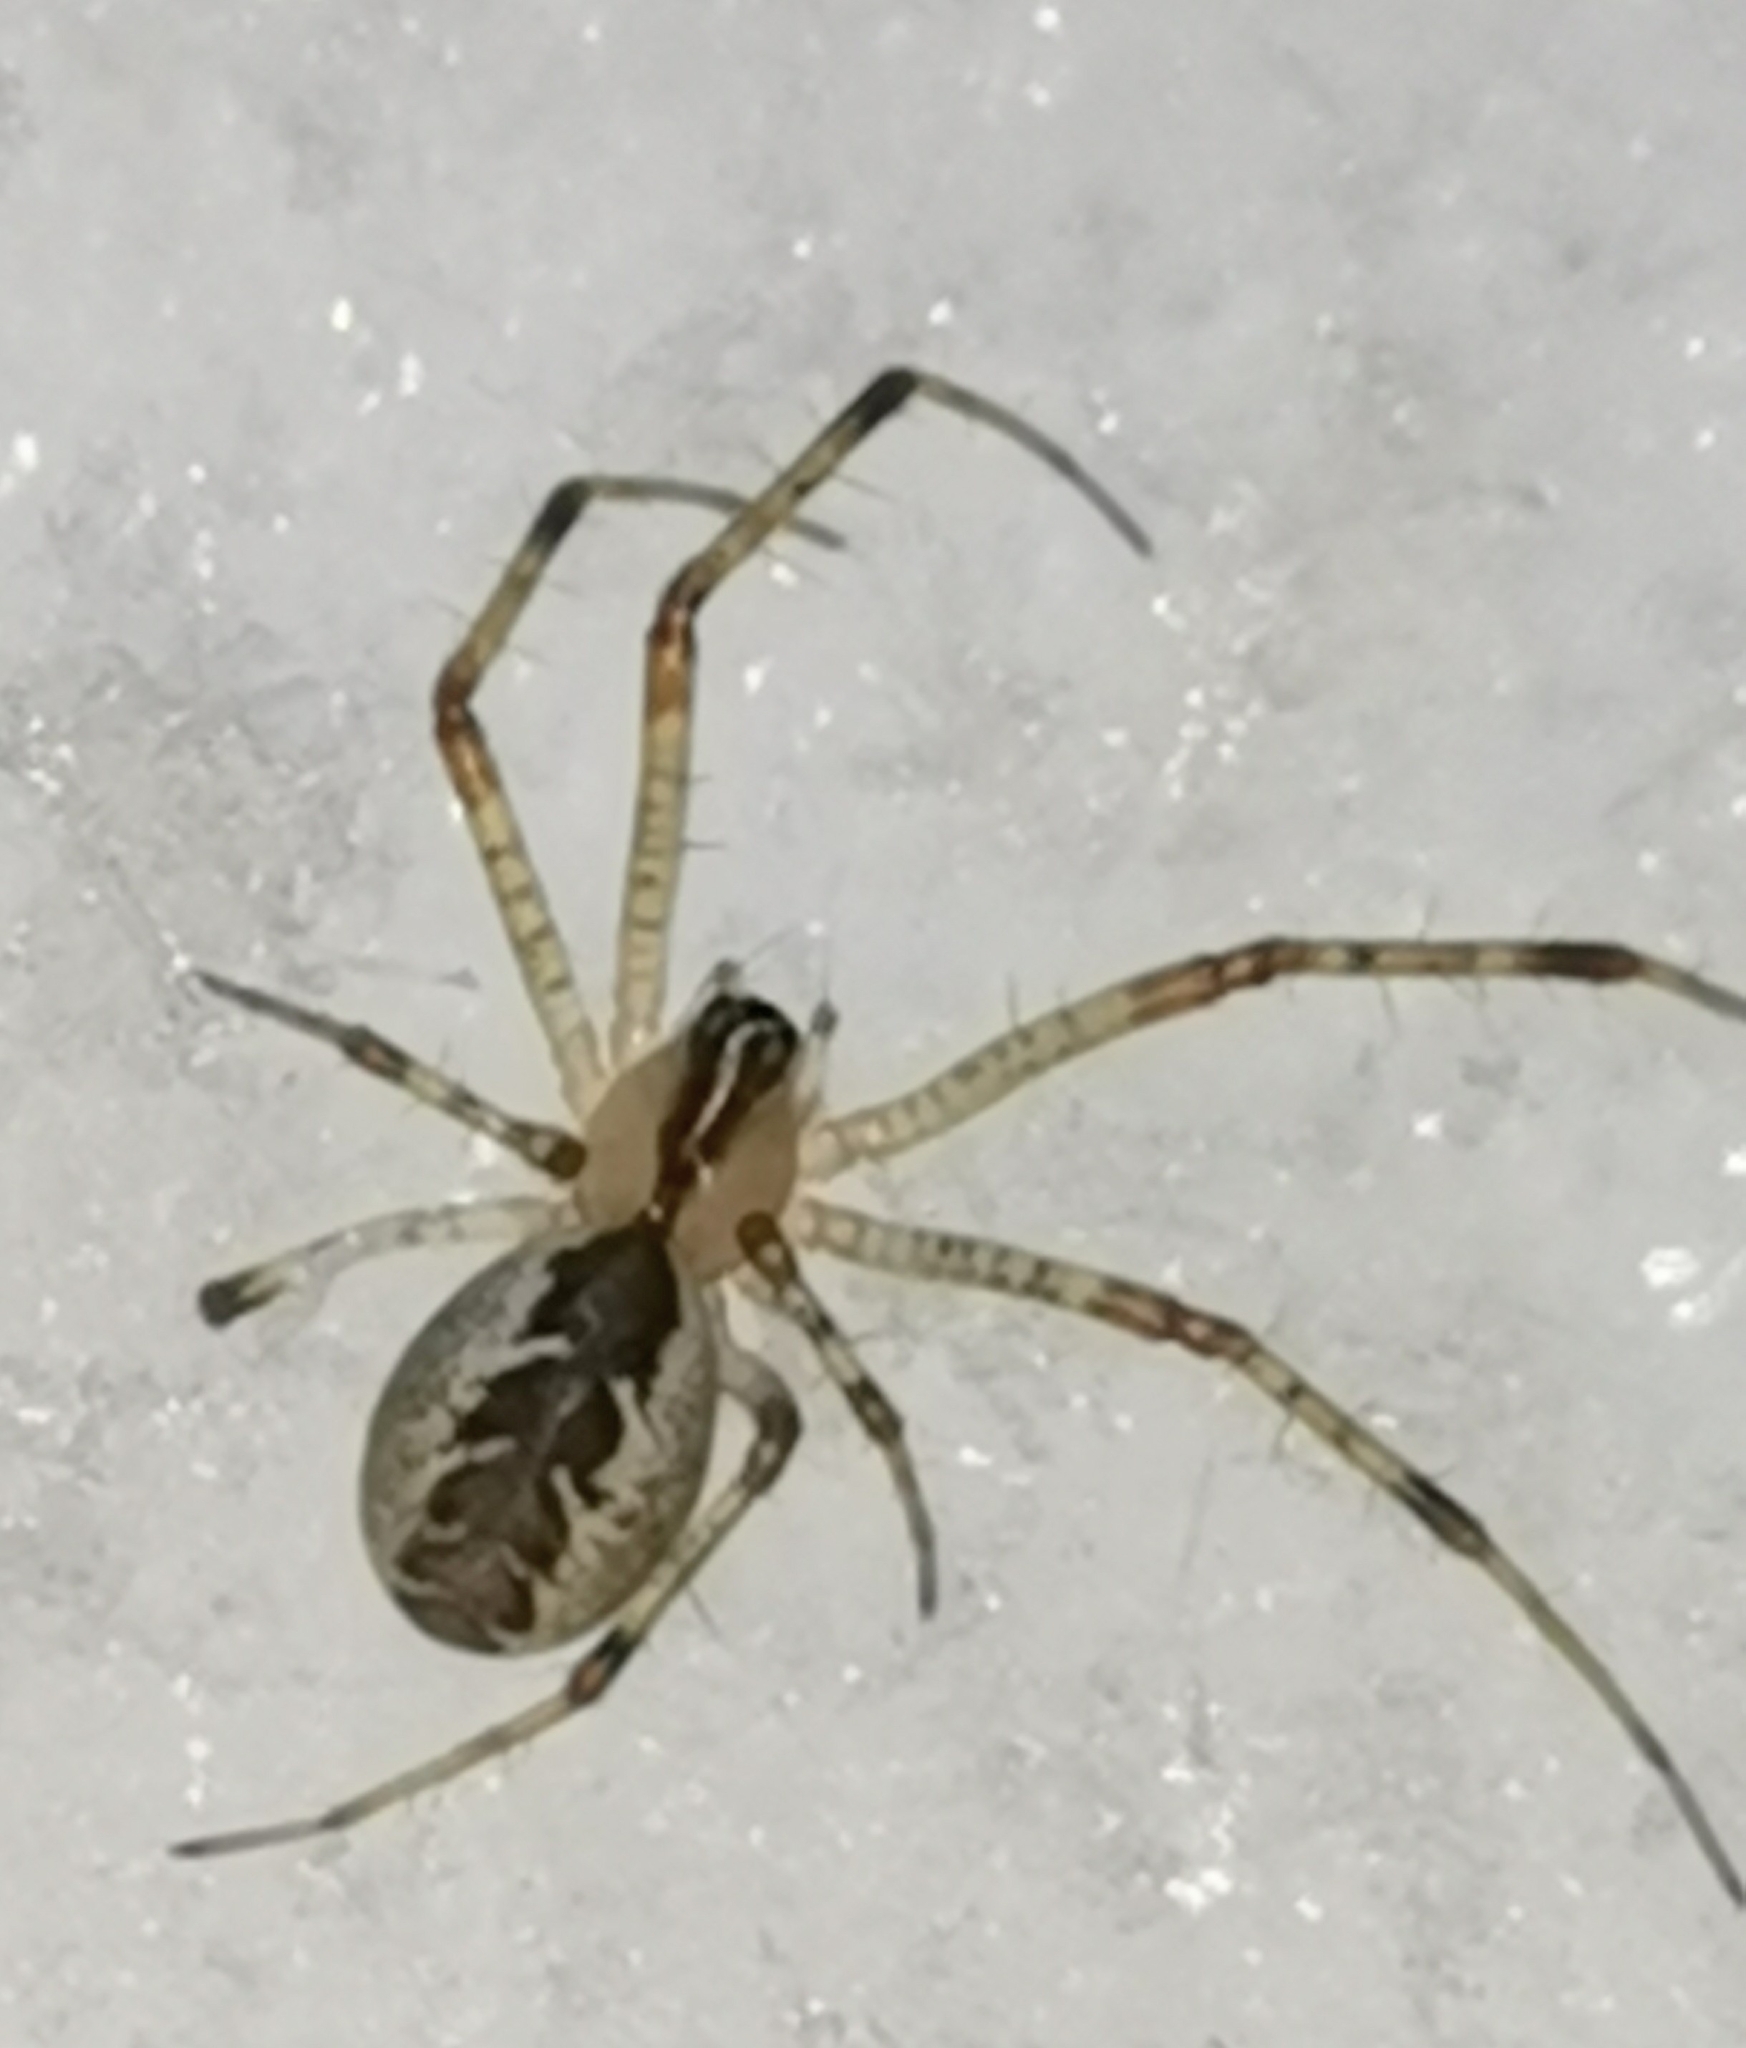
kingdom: Animalia
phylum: Arthropoda
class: Arachnida
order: Araneae
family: Linyphiidae
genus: Pityohyphantes
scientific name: Pityohyphantes phrygianus
